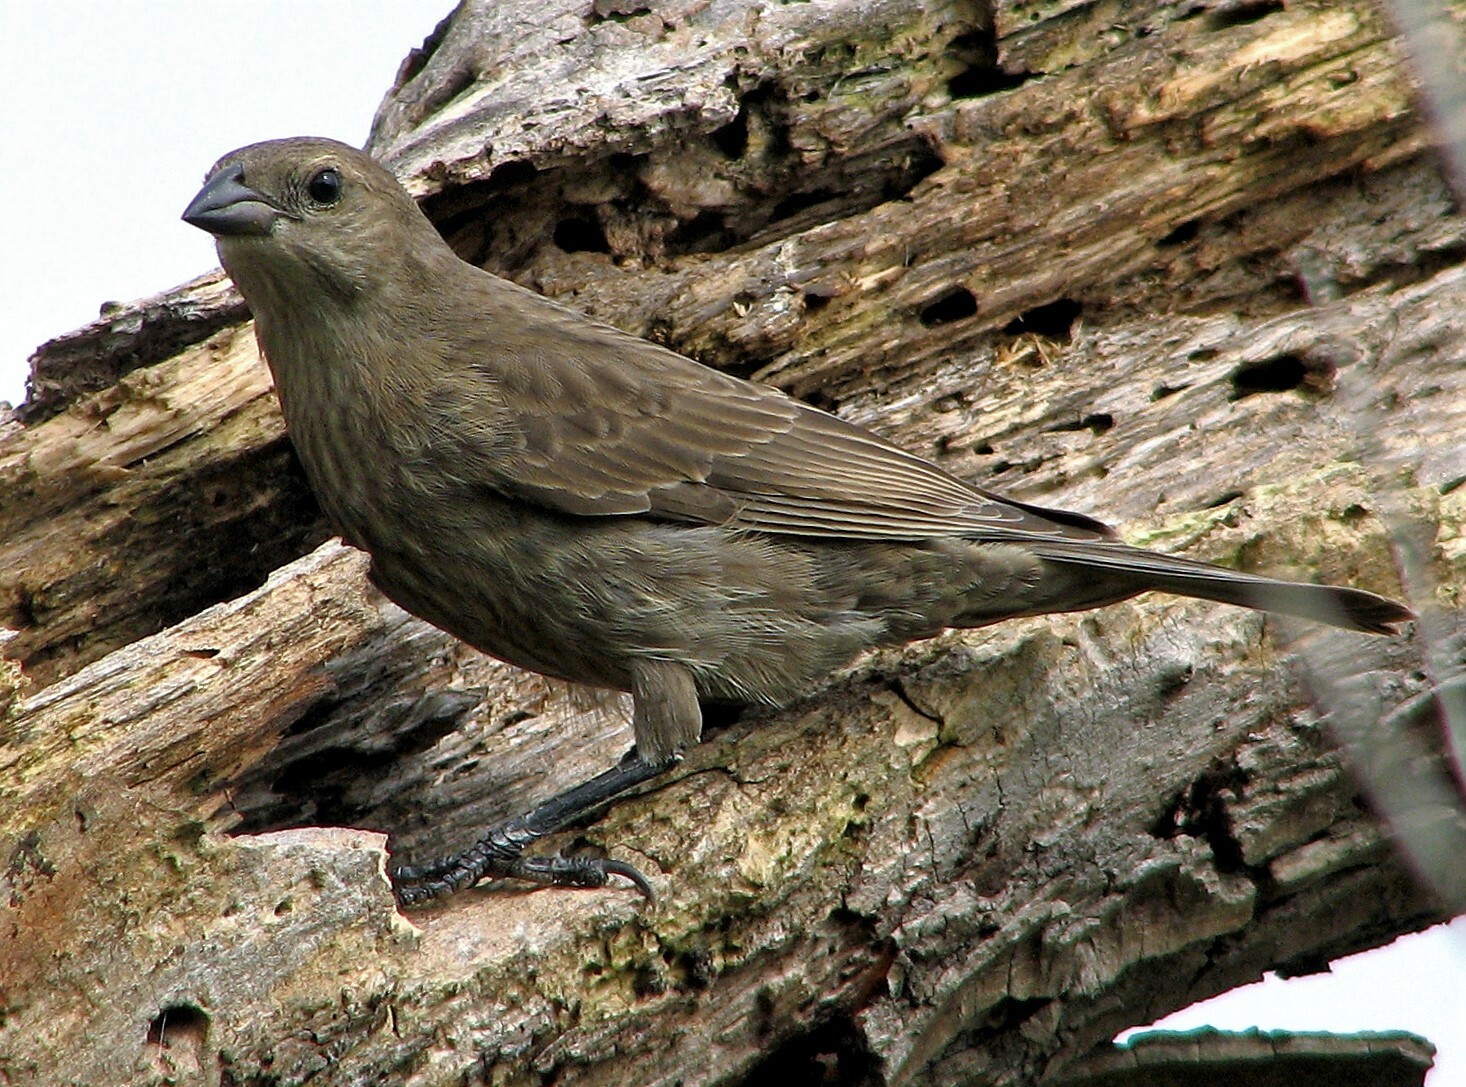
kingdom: Animalia
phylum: Chordata
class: Aves
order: Passeriformes
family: Icteridae
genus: Molothrus
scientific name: Molothrus bonariensis
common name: Shiny cowbird
